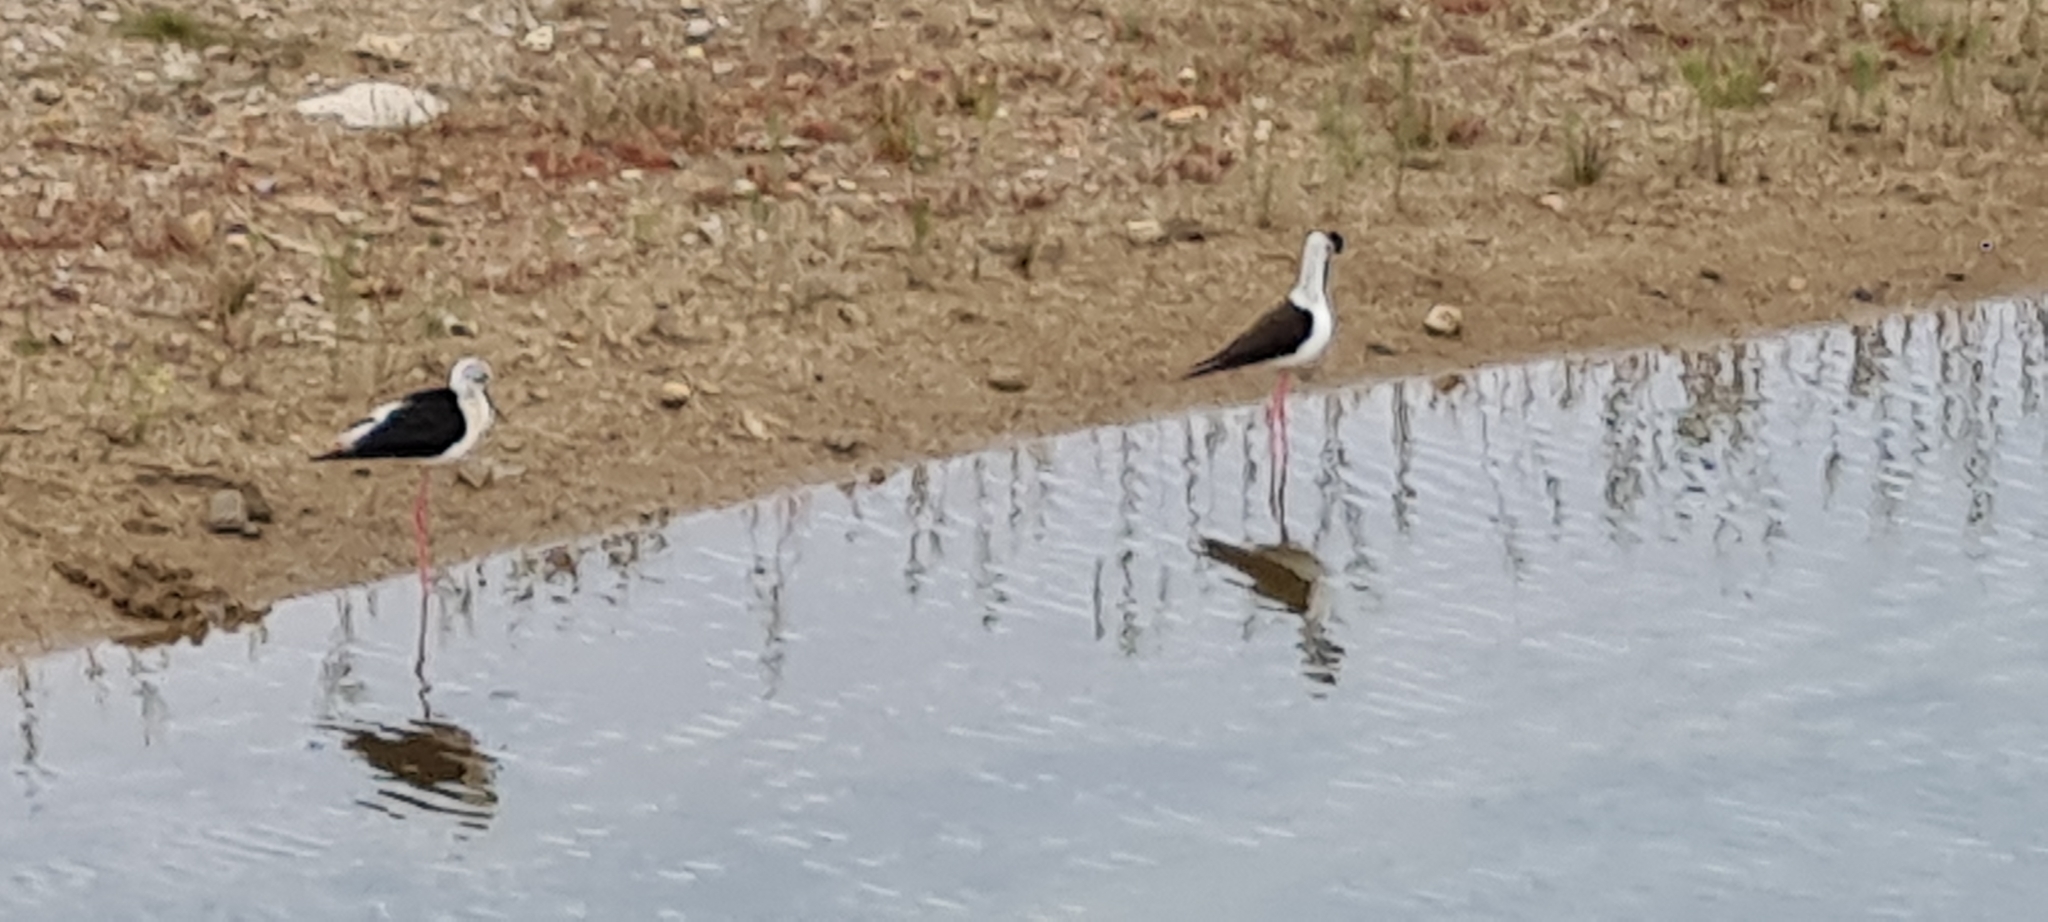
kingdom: Animalia
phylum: Chordata
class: Aves
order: Charadriiformes
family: Recurvirostridae
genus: Himantopus
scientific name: Himantopus himantopus
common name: Black-winged stilt
